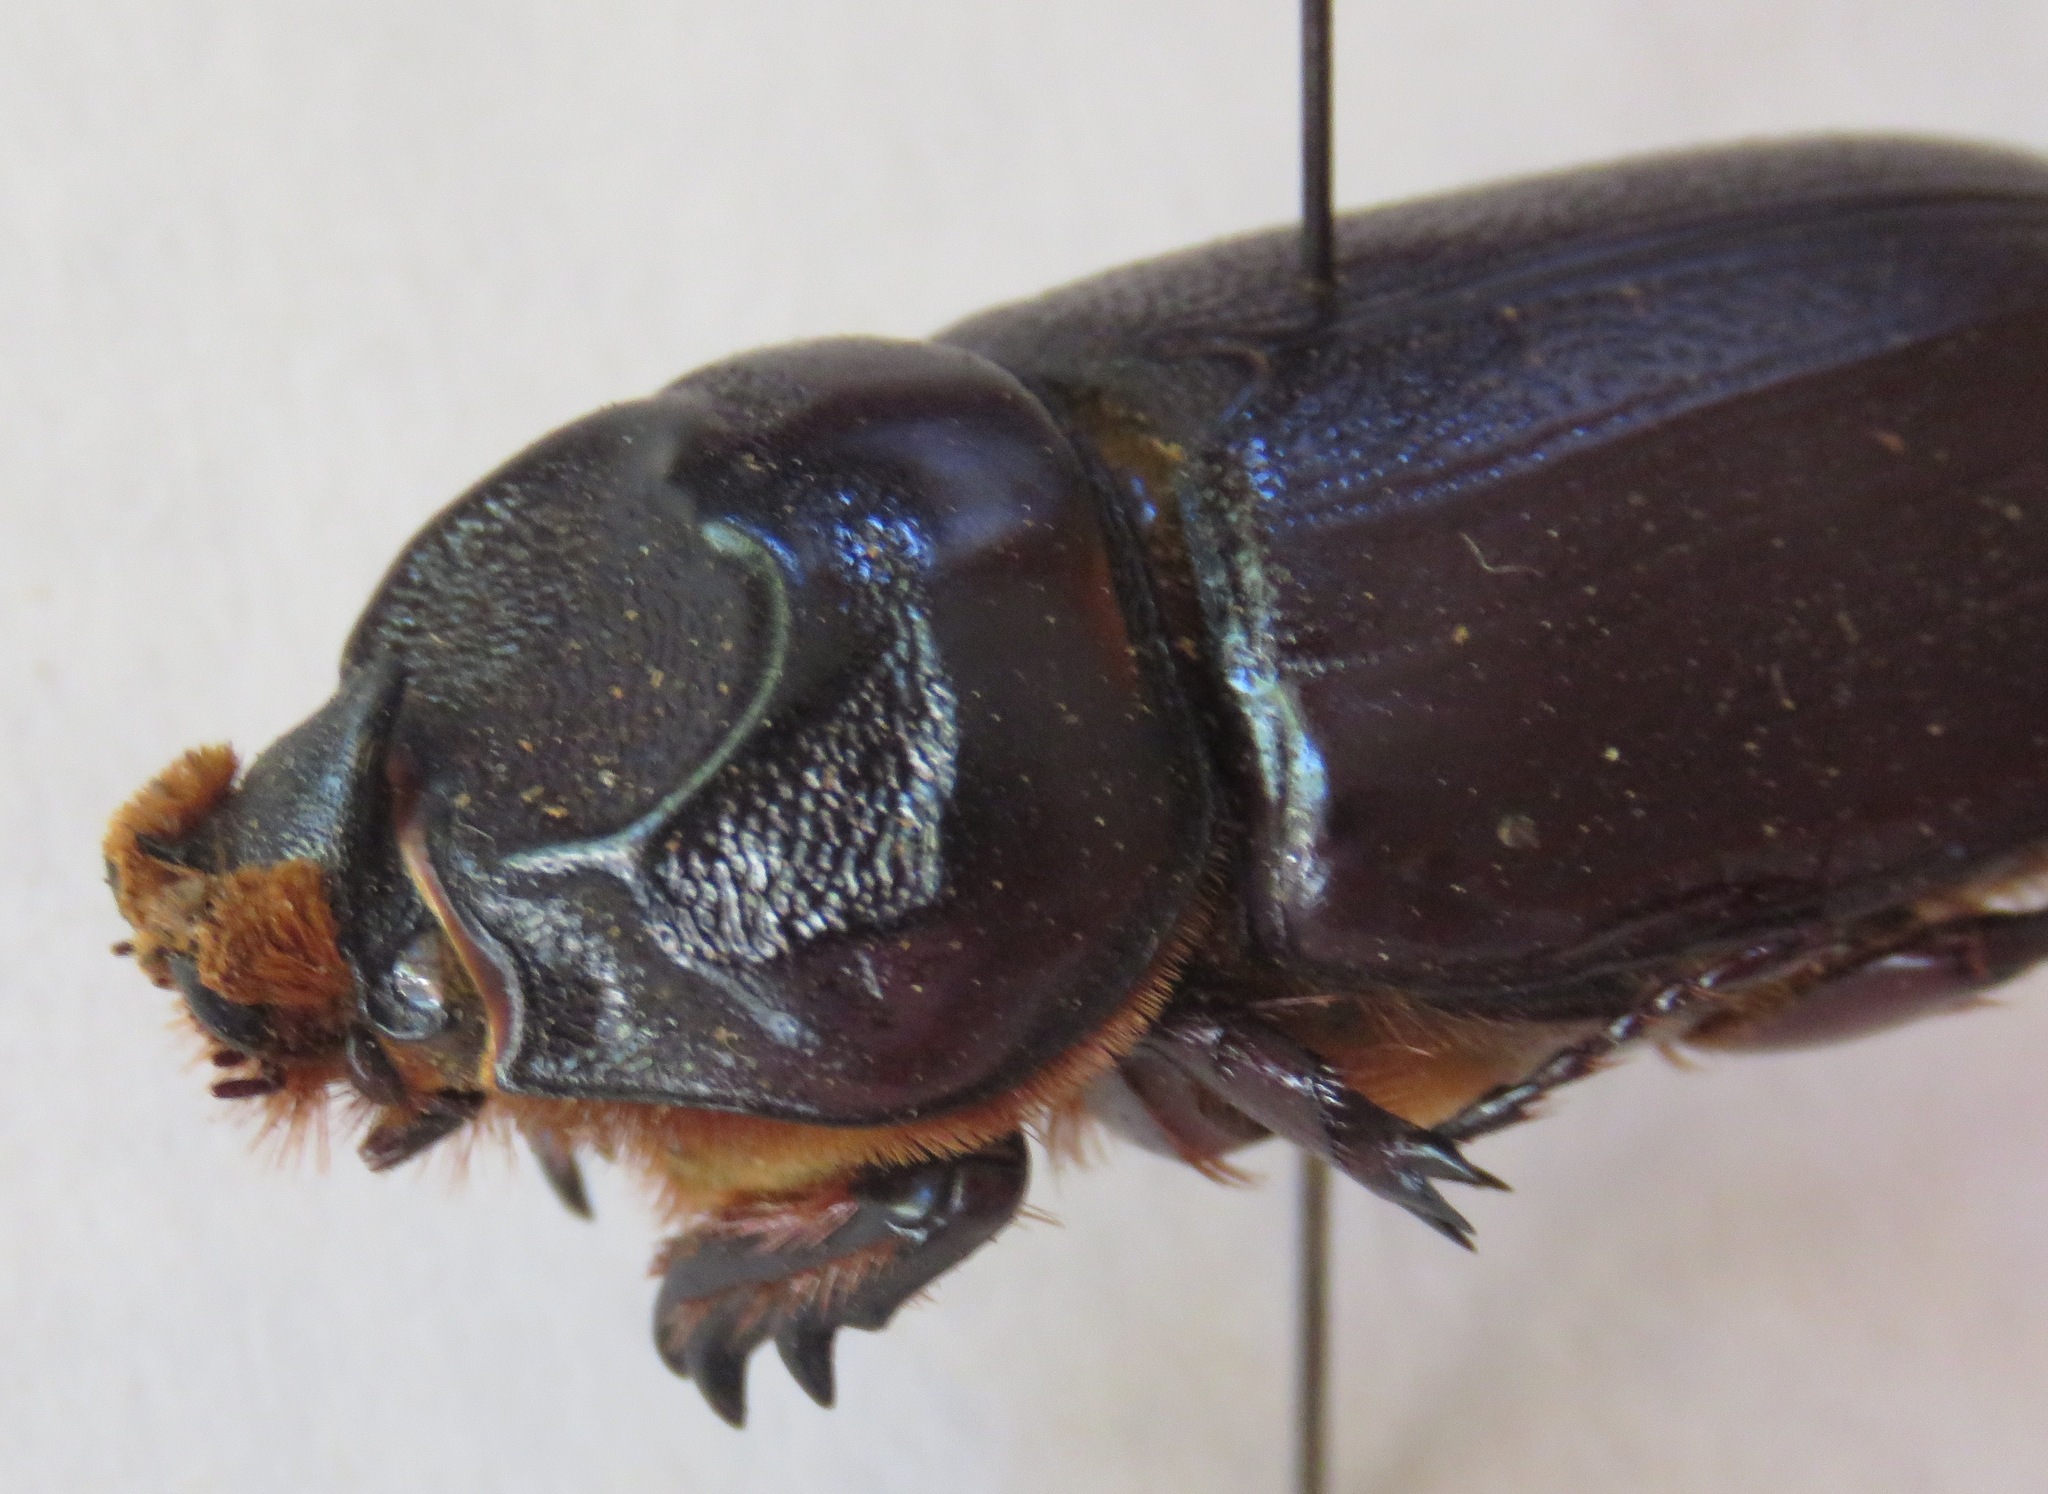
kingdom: Animalia
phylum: Arthropoda
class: Insecta
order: Coleoptera
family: Scarabaeidae
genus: Oryctes
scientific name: Oryctes rhinoceros
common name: Coconut rhinoceros beetle
